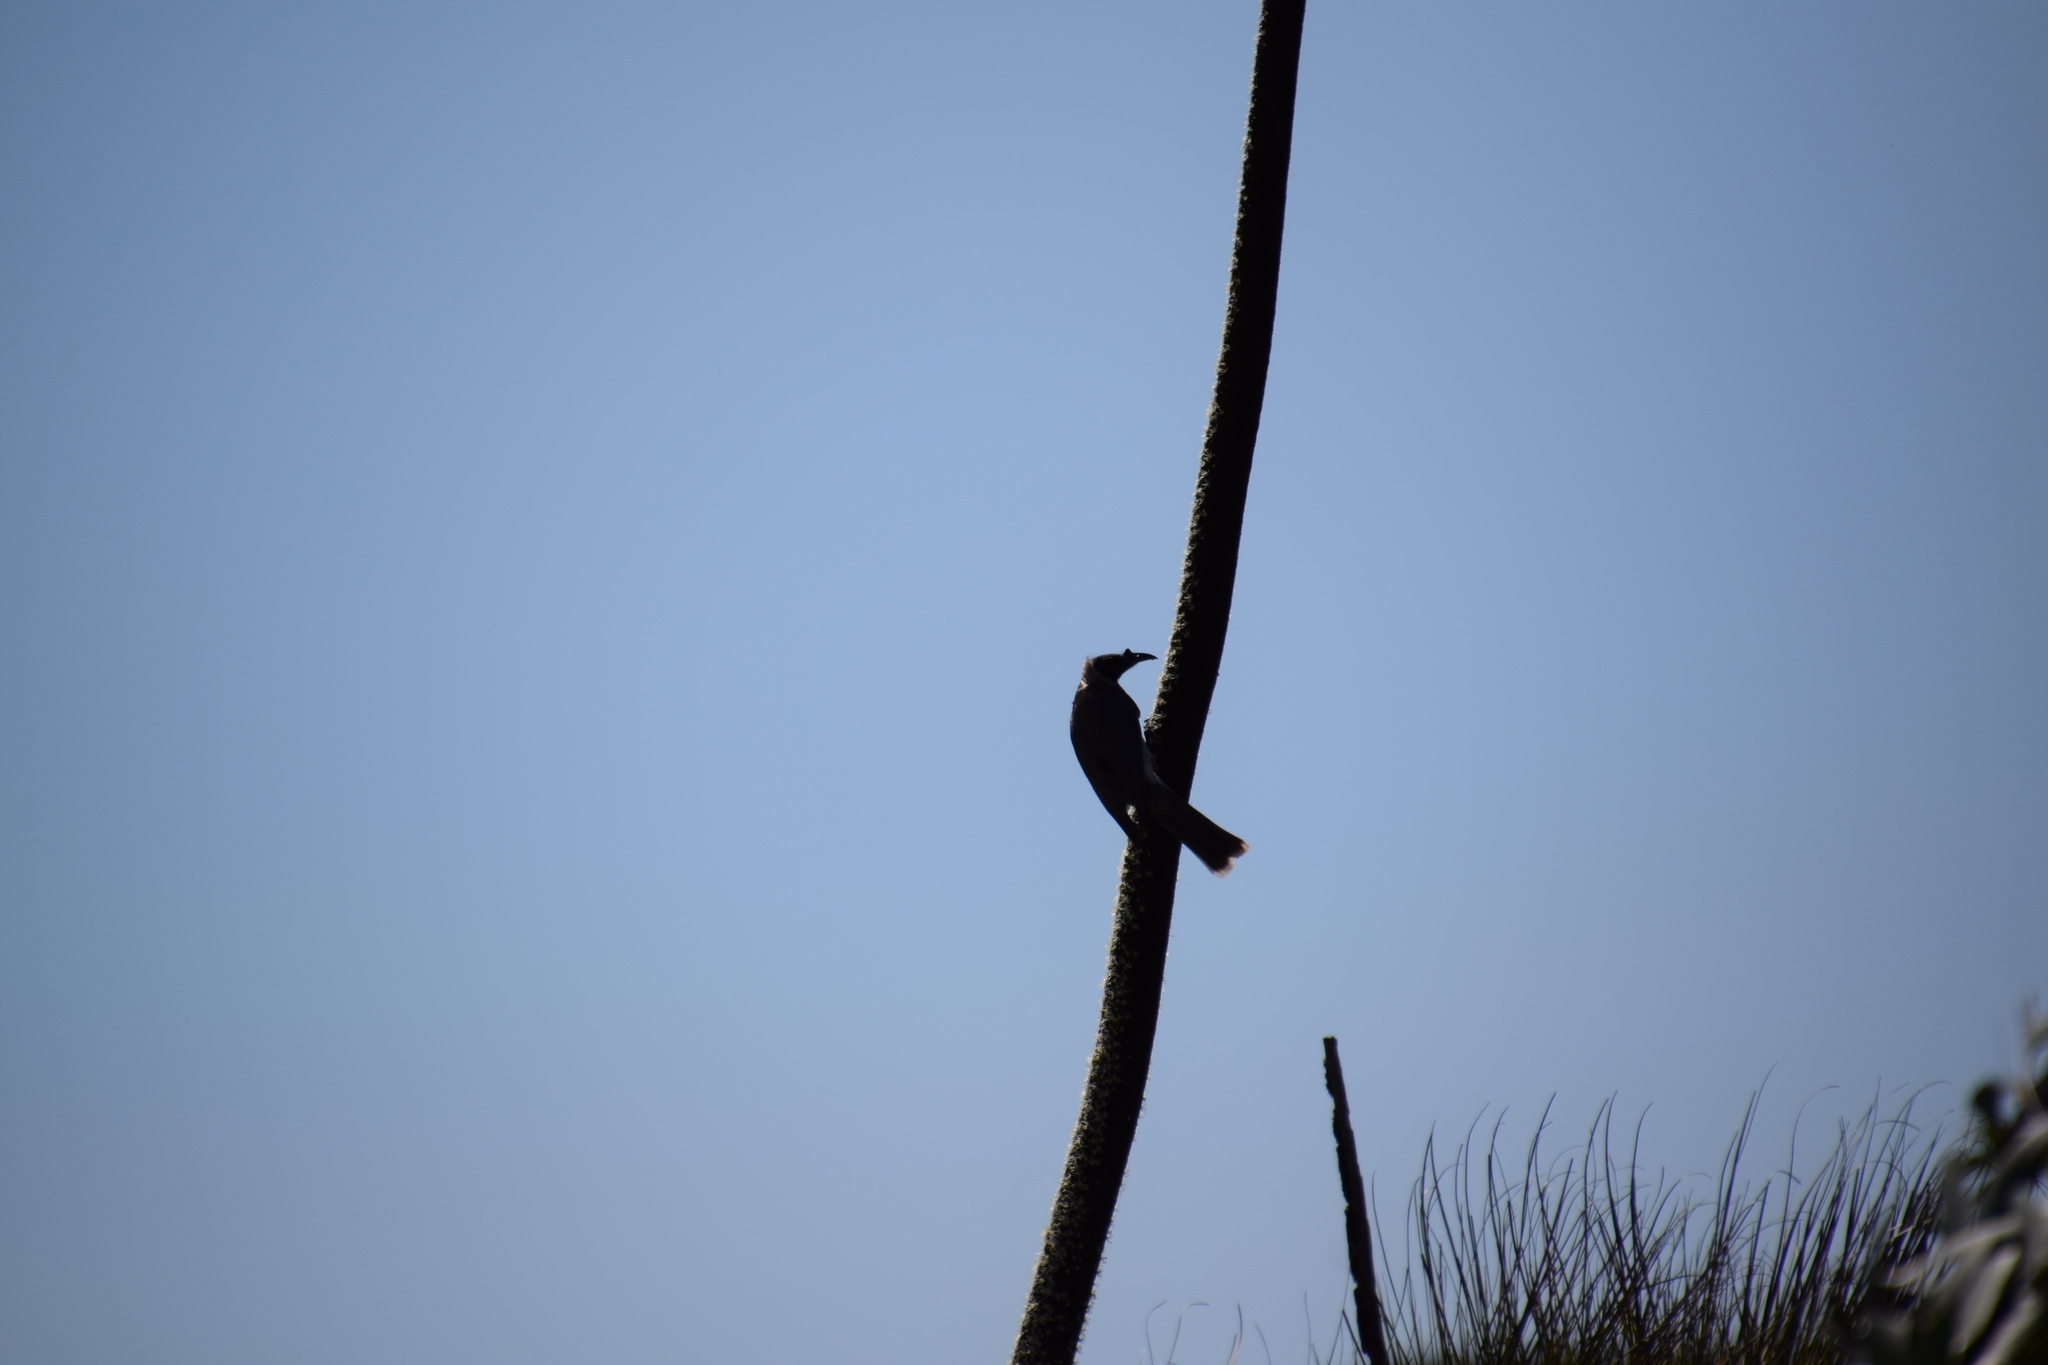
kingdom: Animalia
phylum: Chordata
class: Aves
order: Passeriformes
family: Meliphagidae
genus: Philemon
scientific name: Philemon corniculatus
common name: Noisy friarbird
